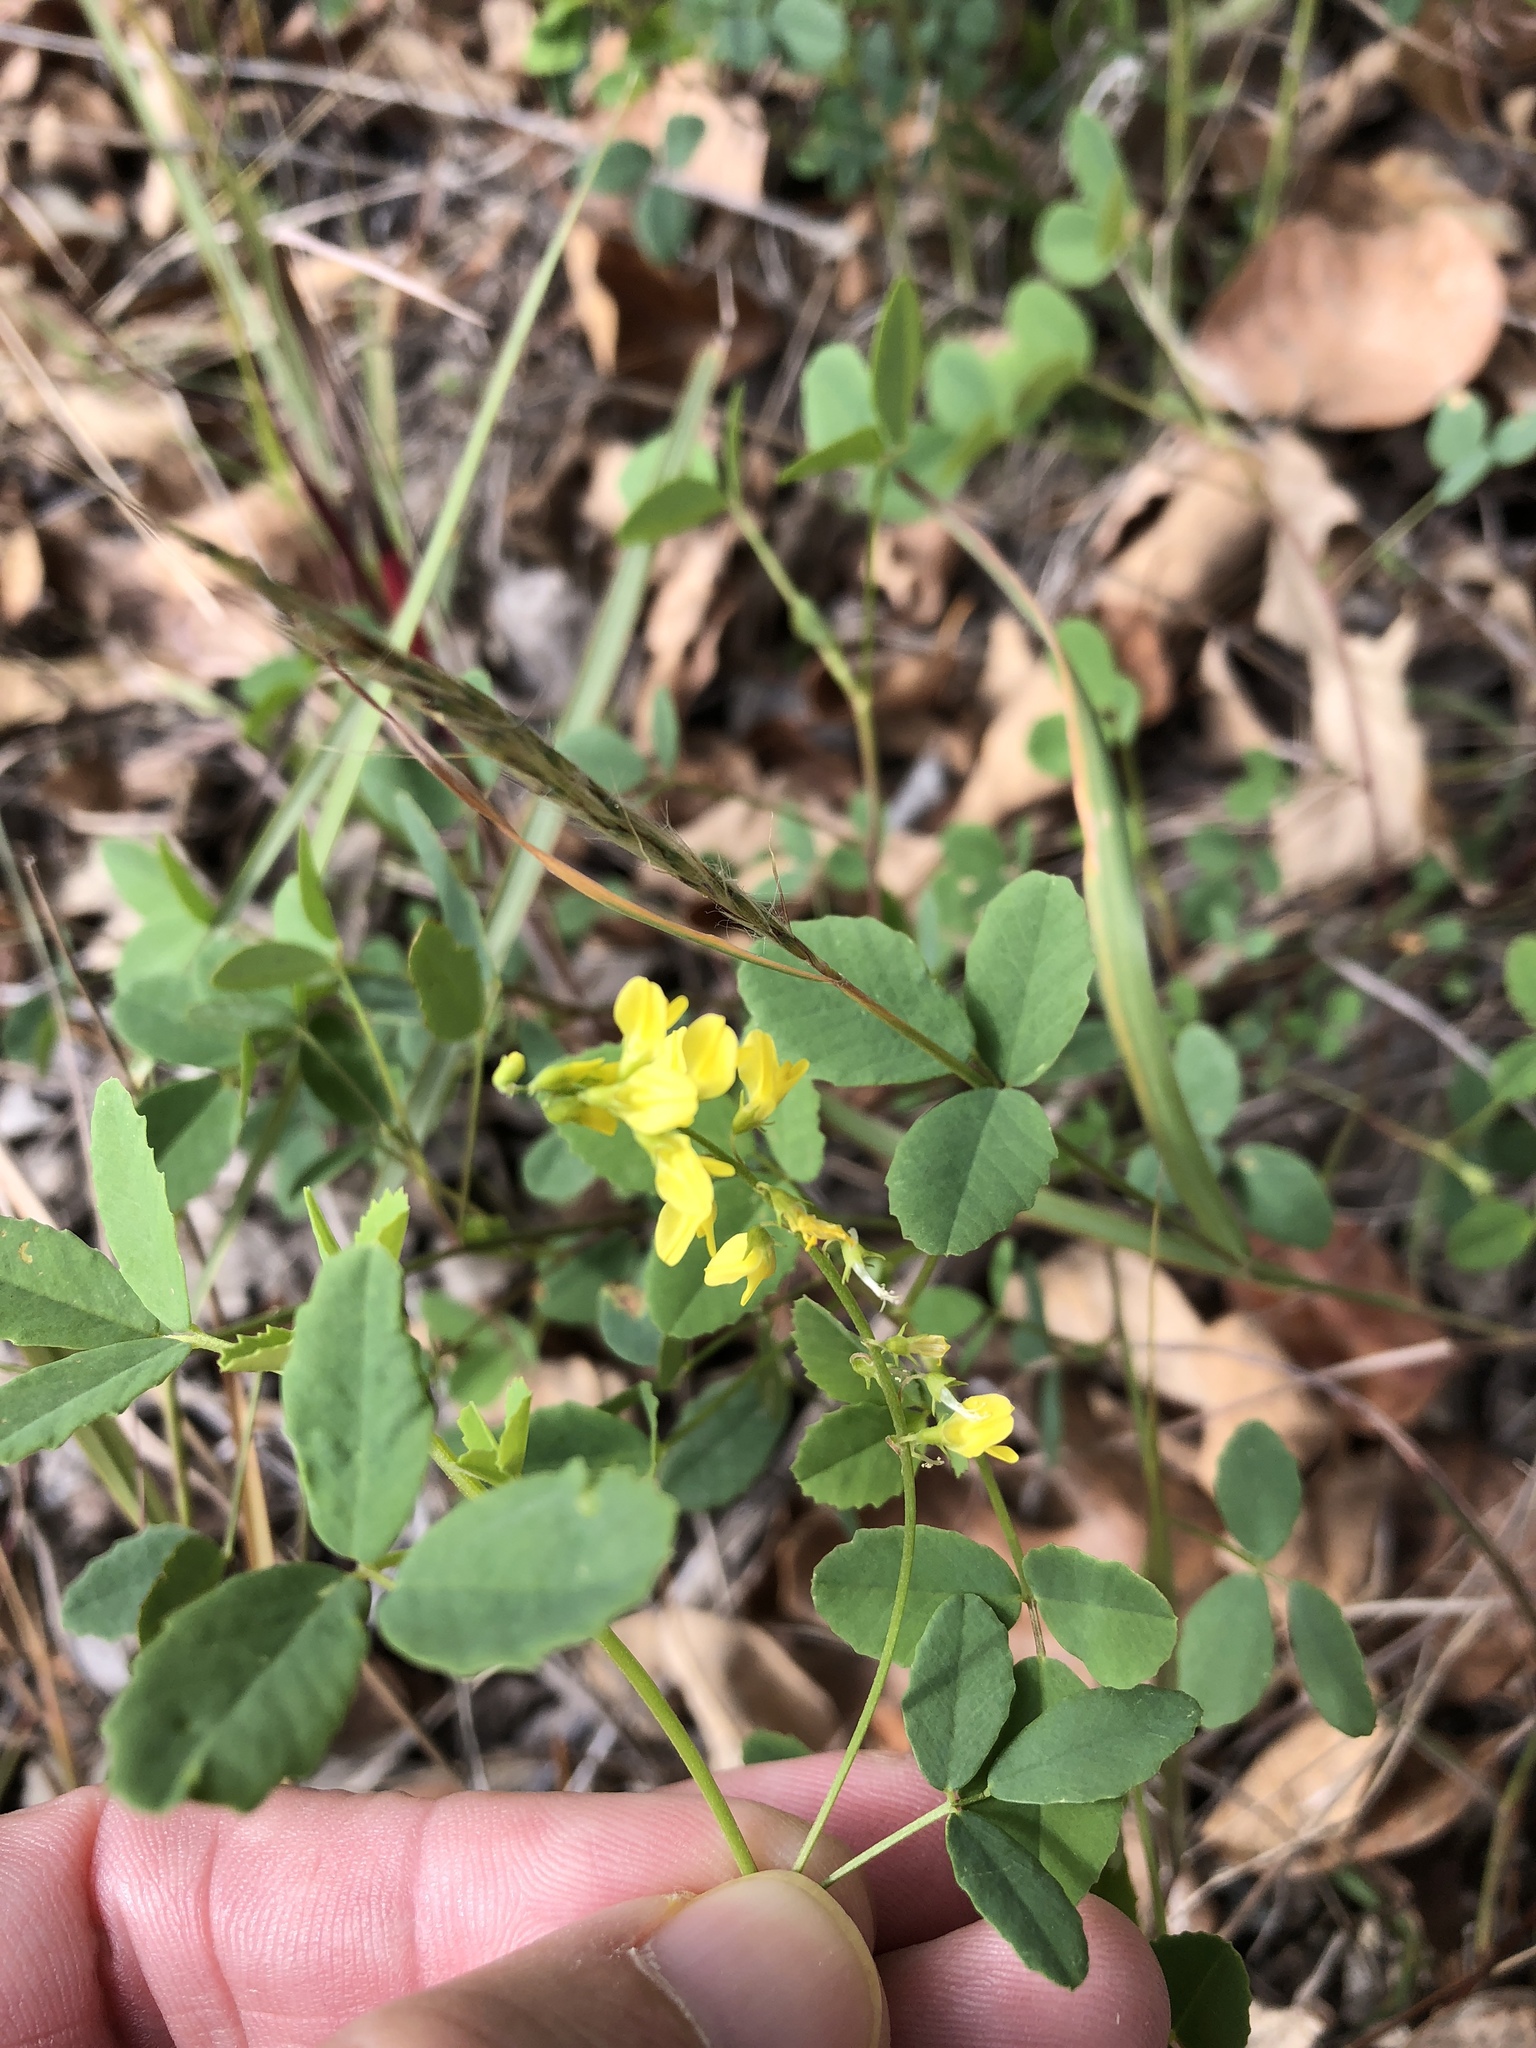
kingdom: Plantae
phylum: Tracheophyta
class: Magnoliopsida
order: Fabales
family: Fabaceae
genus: Melilotus
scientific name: Melilotus officinalis
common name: Sweetclover
